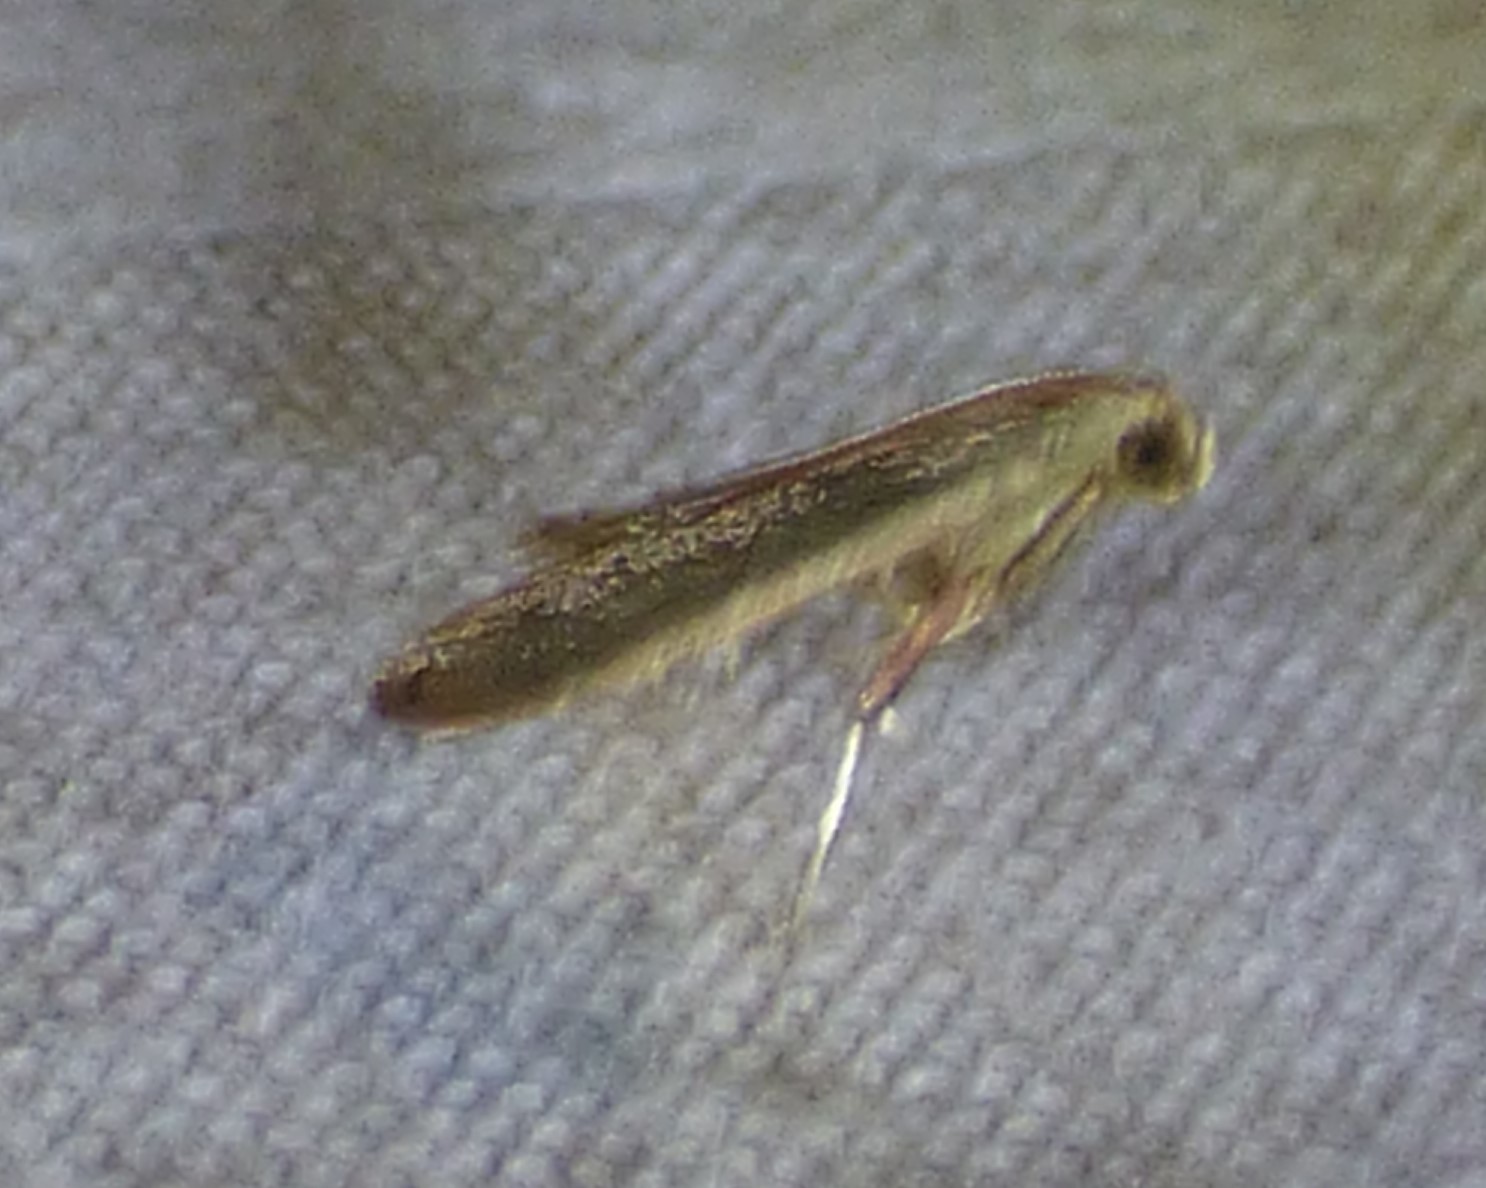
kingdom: Animalia
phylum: Arthropoda
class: Insecta
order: Lepidoptera
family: Pyralidae
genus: Arta
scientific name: Arta olivalis
